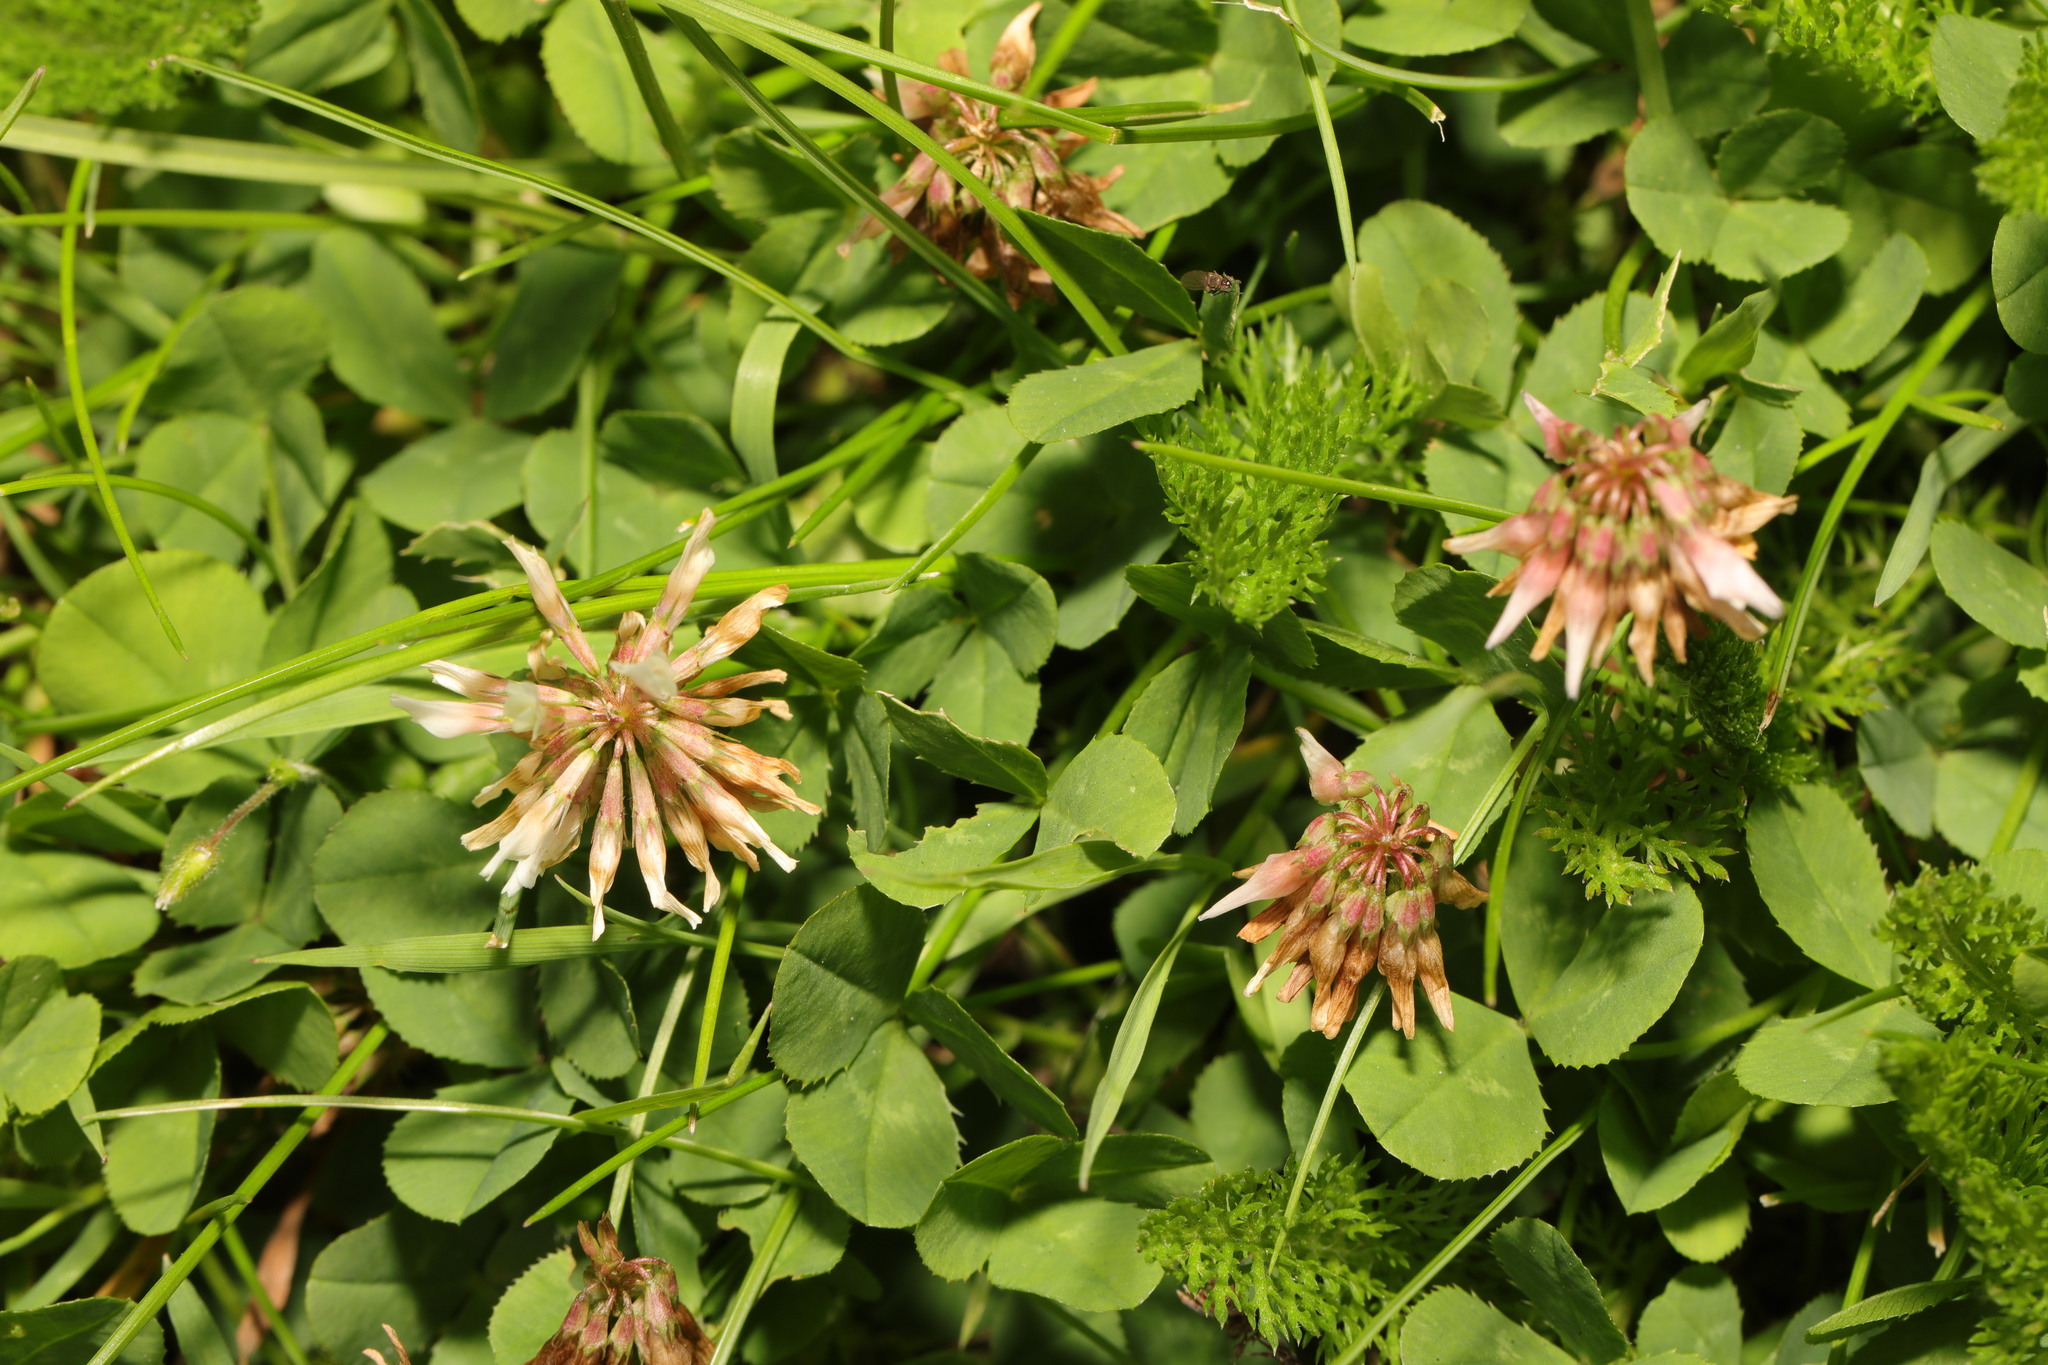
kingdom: Plantae
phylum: Tracheophyta
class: Magnoliopsida
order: Fabales
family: Fabaceae
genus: Trifolium
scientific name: Trifolium repens
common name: White clover
